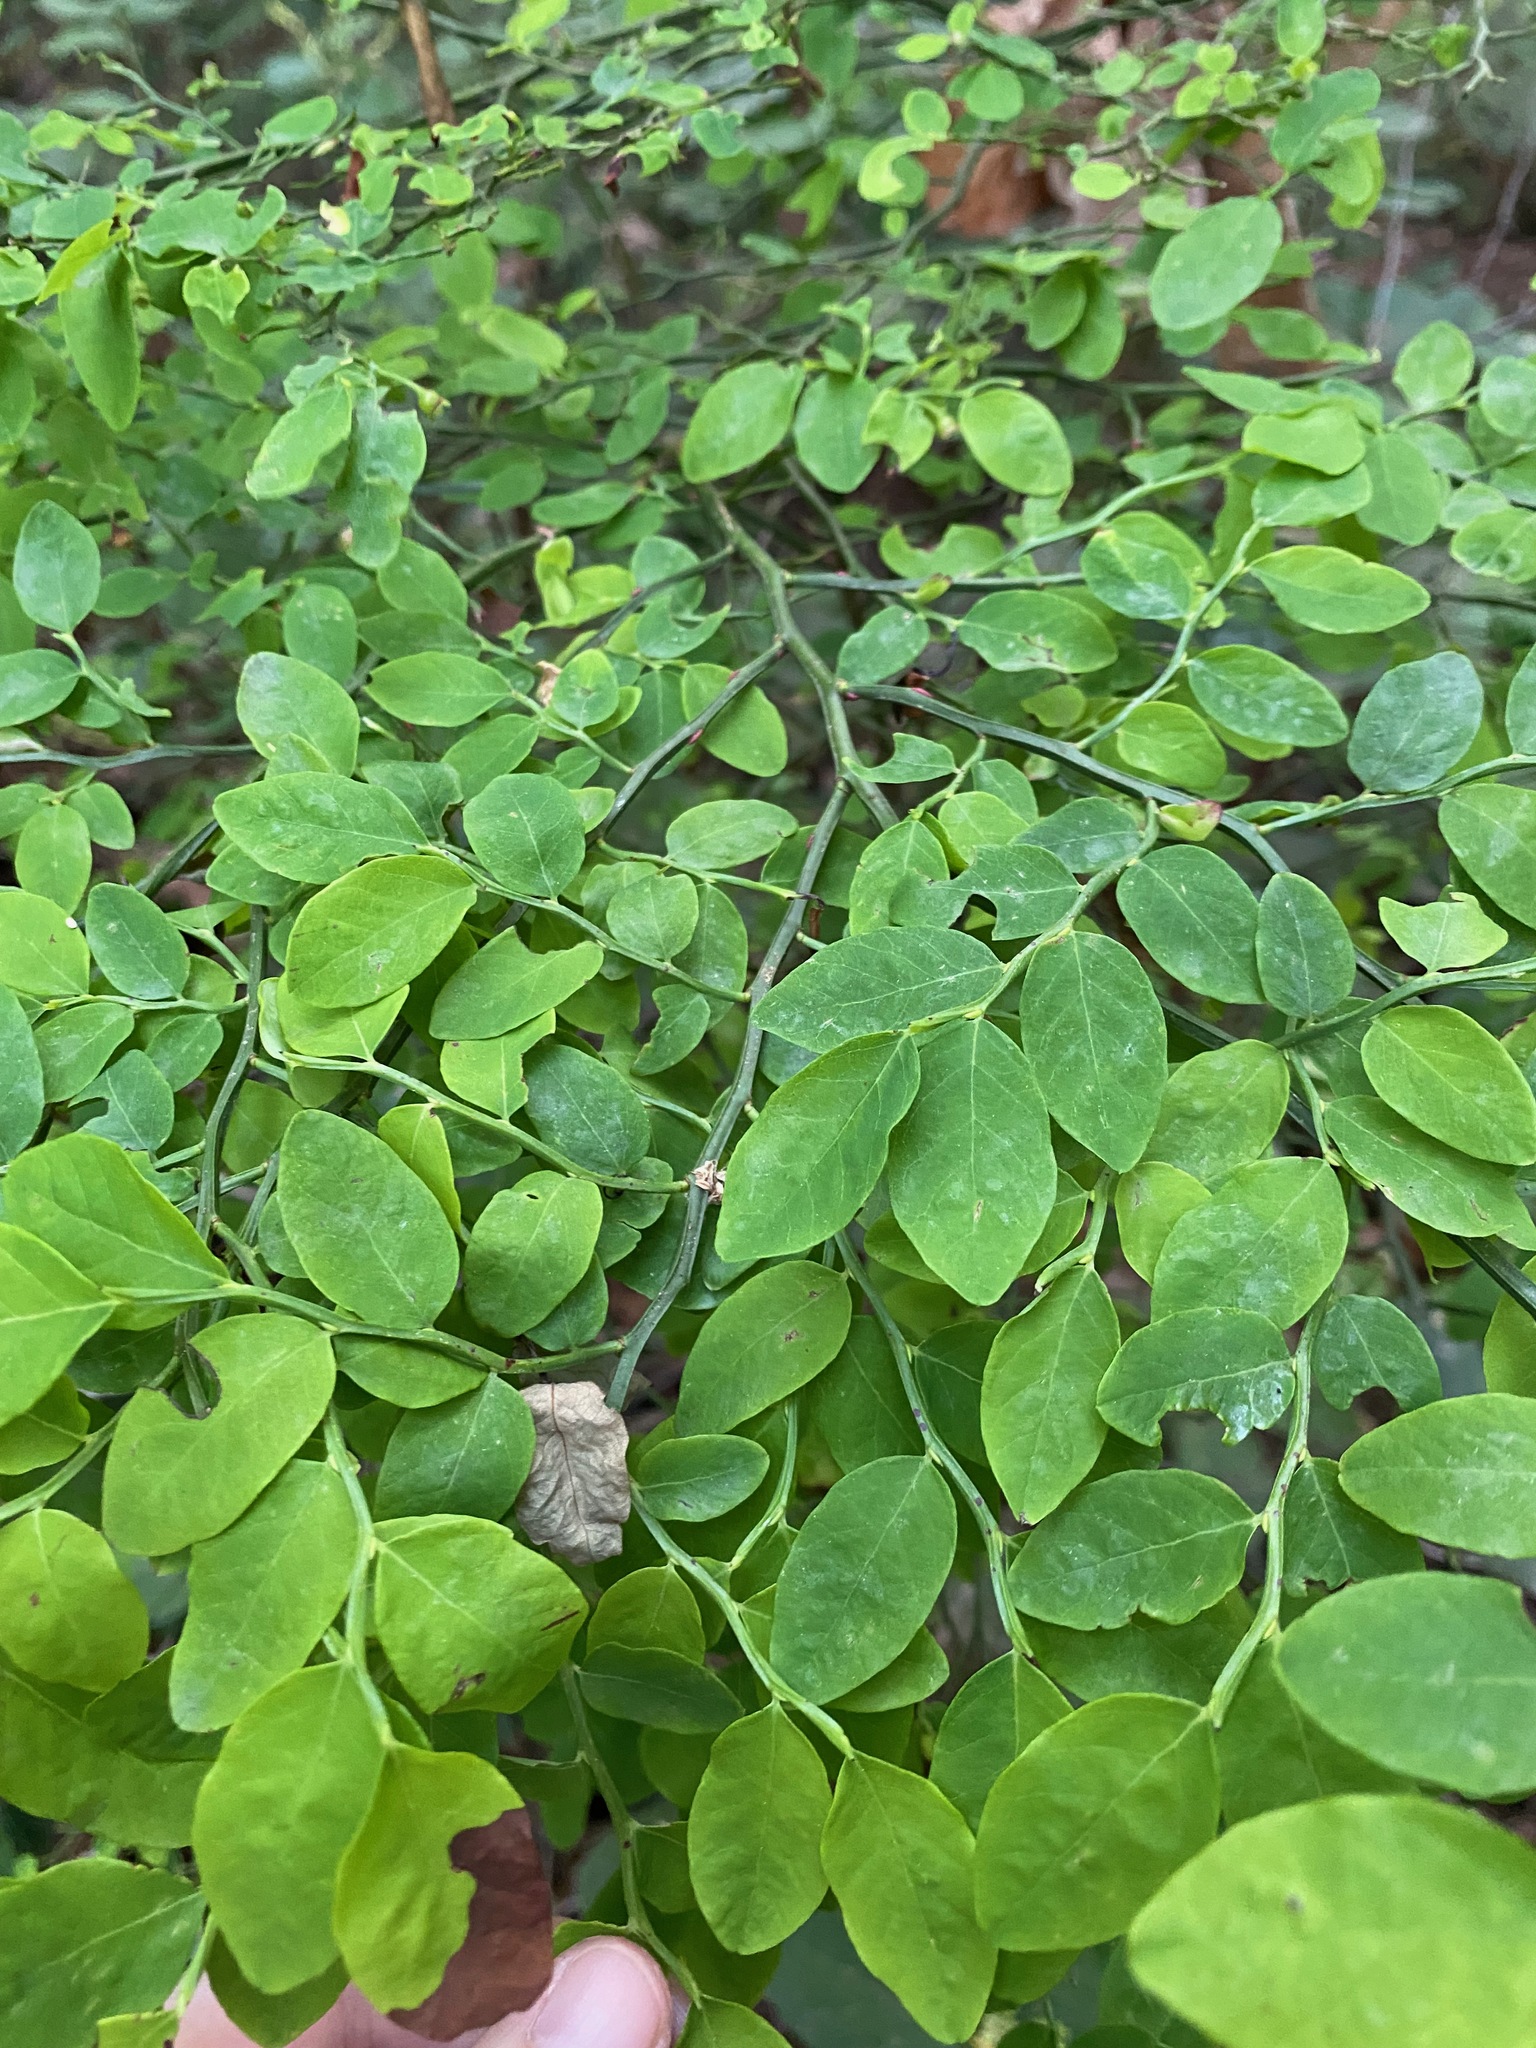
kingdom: Plantae
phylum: Tracheophyta
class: Magnoliopsida
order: Ericales
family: Ericaceae
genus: Vaccinium
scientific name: Vaccinium parvifolium
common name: Red-huckleberry
